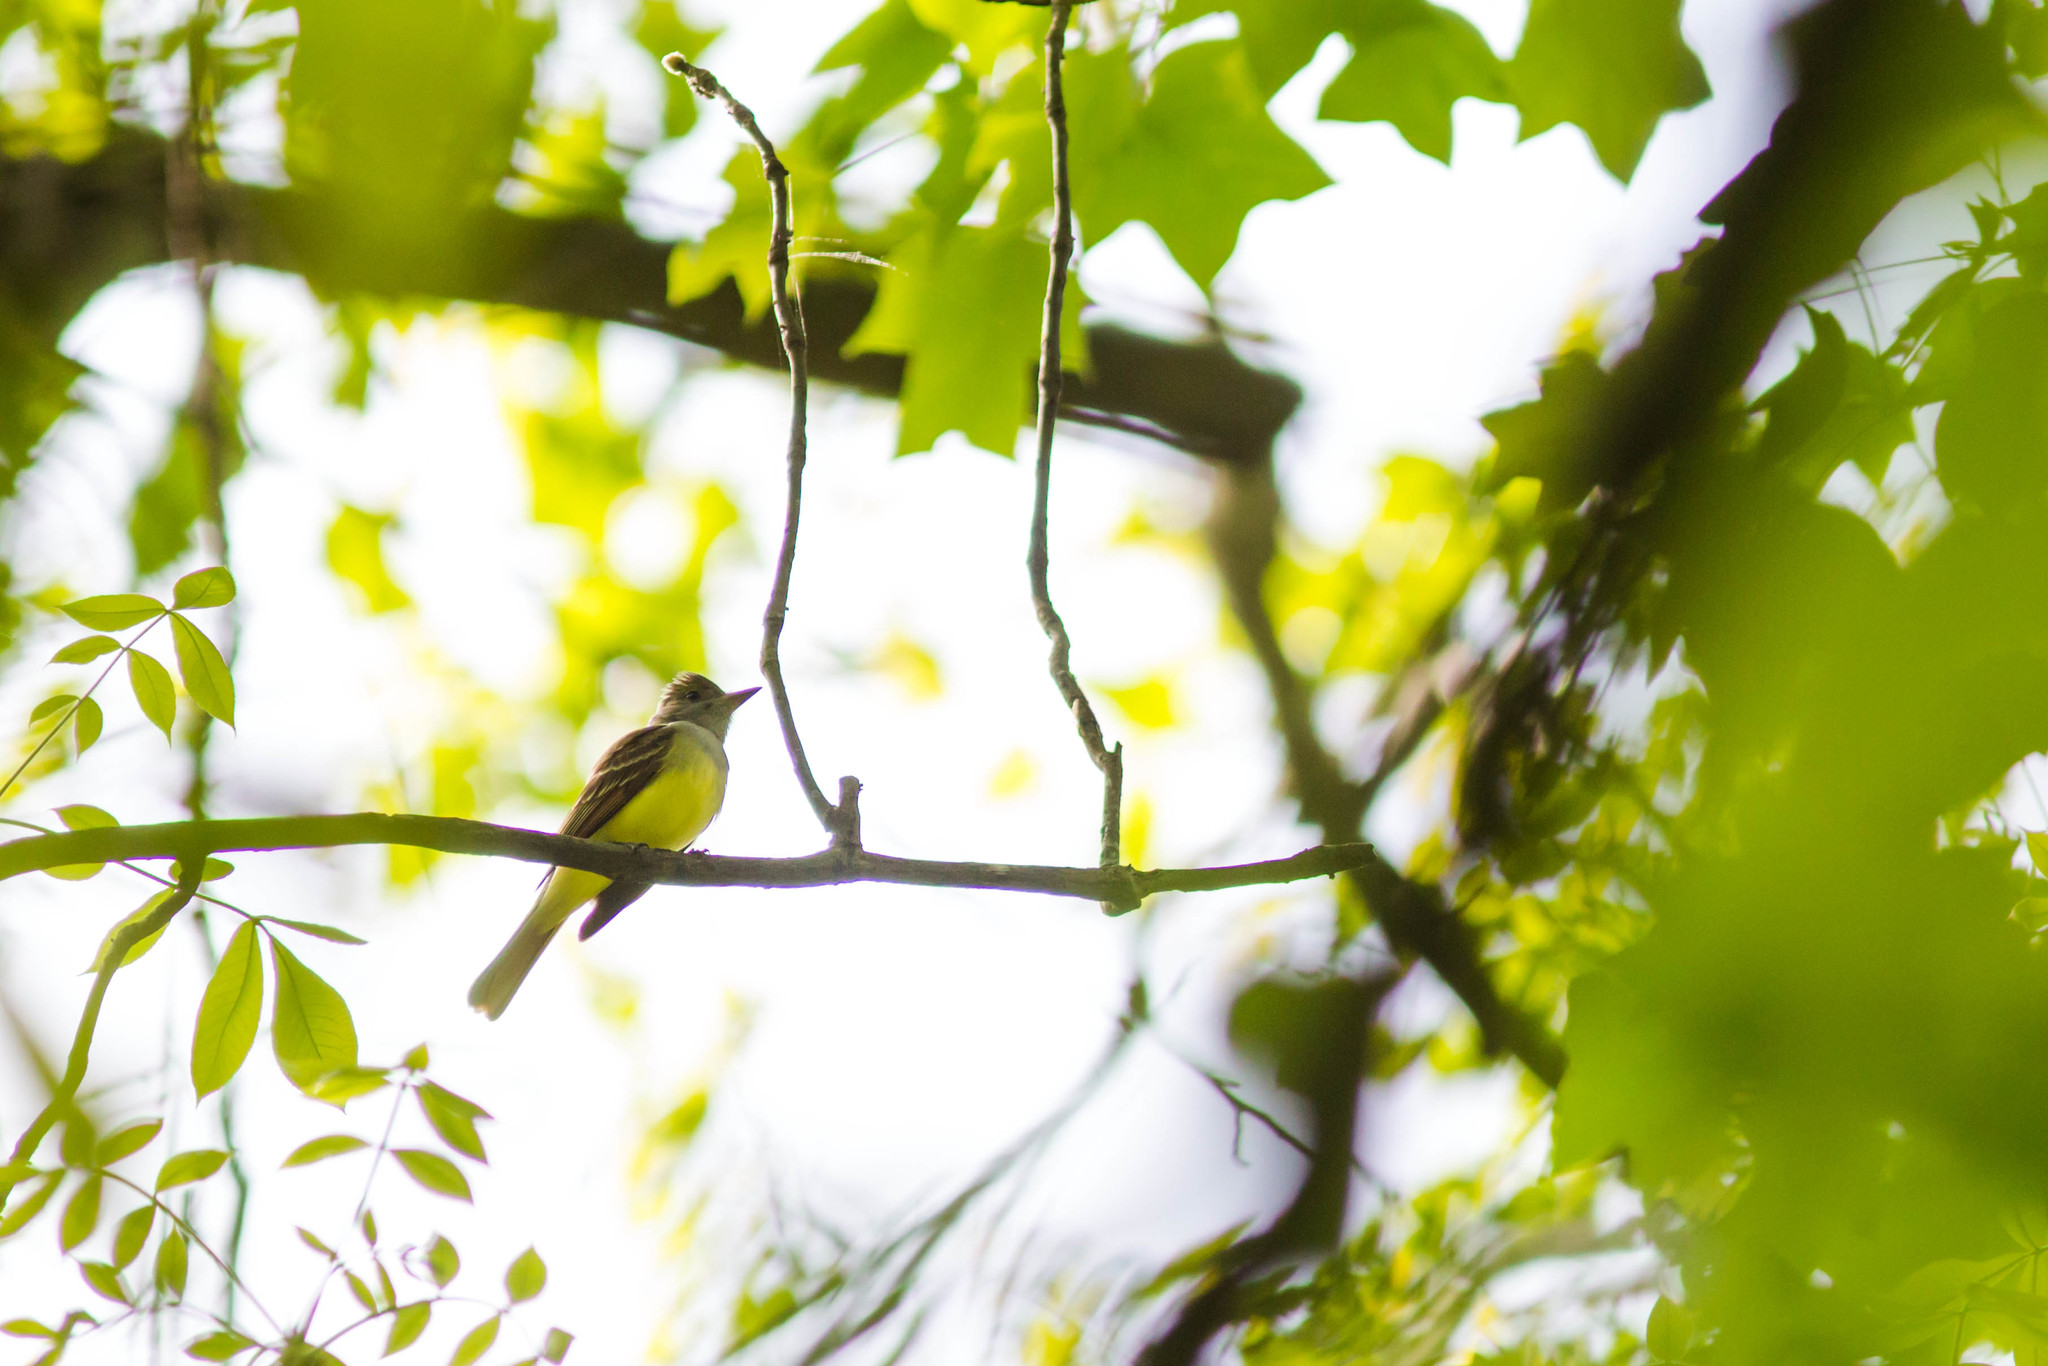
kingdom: Animalia
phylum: Chordata
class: Aves
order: Passeriformes
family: Tyrannidae
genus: Myiarchus
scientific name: Myiarchus crinitus
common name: Great crested flycatcher
